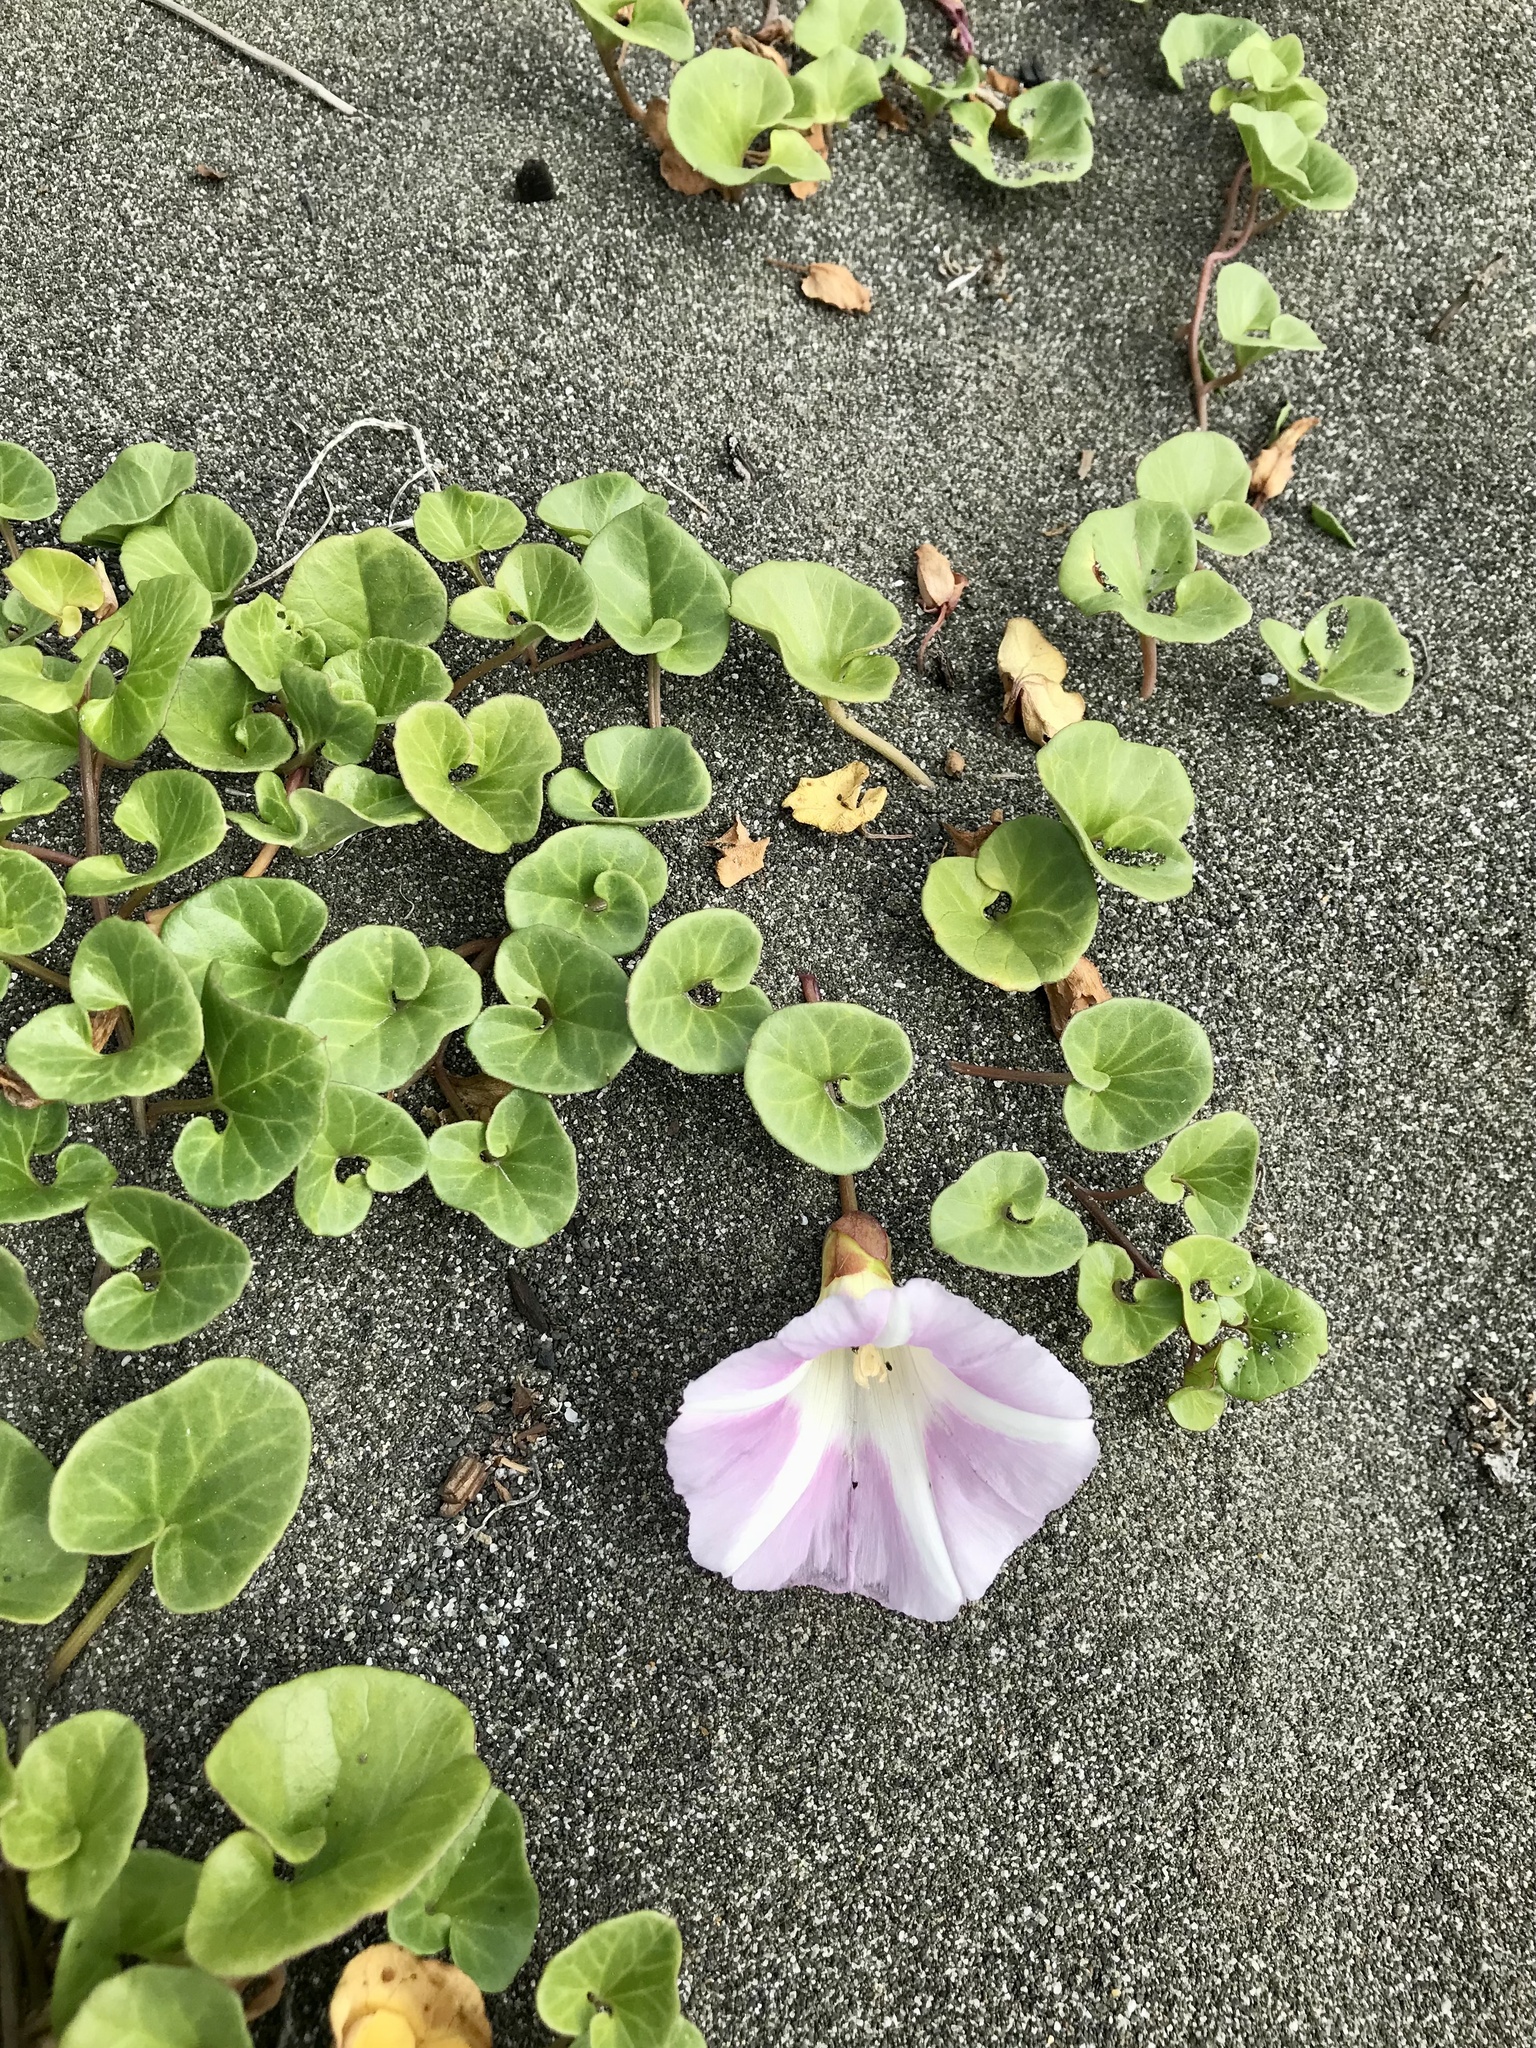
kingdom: Plantae
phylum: Tracheophyta
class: Magnoliopsida
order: Solanales
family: Convolvulaceae
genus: Calystegia
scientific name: Calystegia soldanella
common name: Sea bindweed
